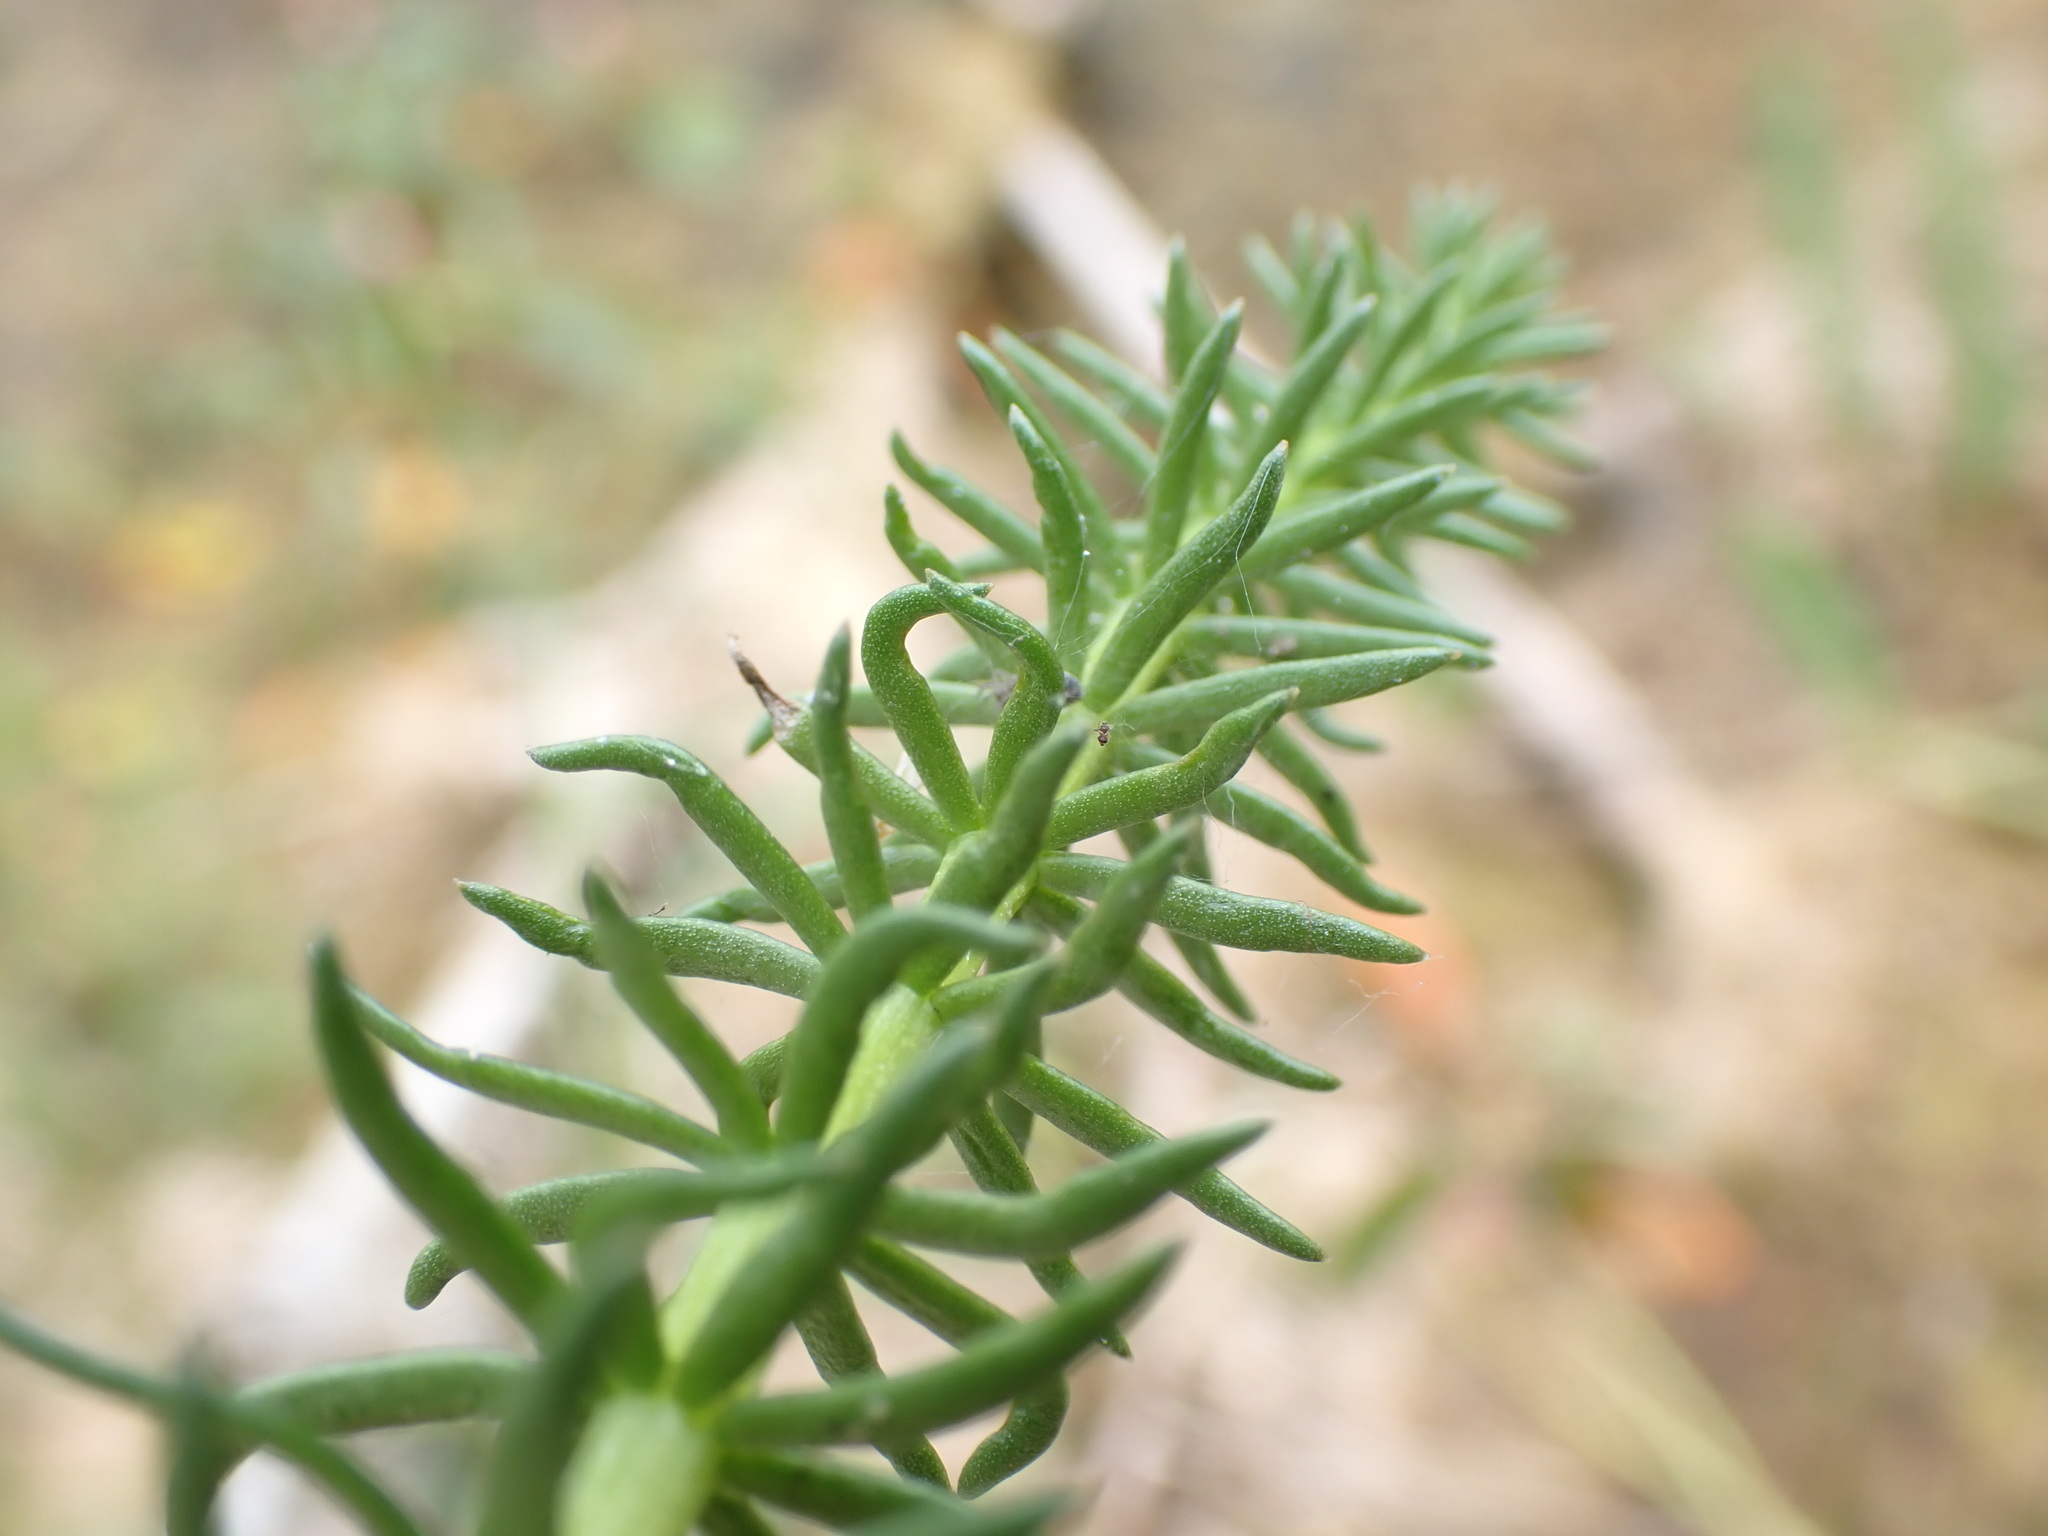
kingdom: Plantae
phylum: Tracheophyta
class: Magnoliopsida
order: Lamiales
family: Plantaginaceae
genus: Hippuris
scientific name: Hippuris vulgaris
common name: Mare's-tail
